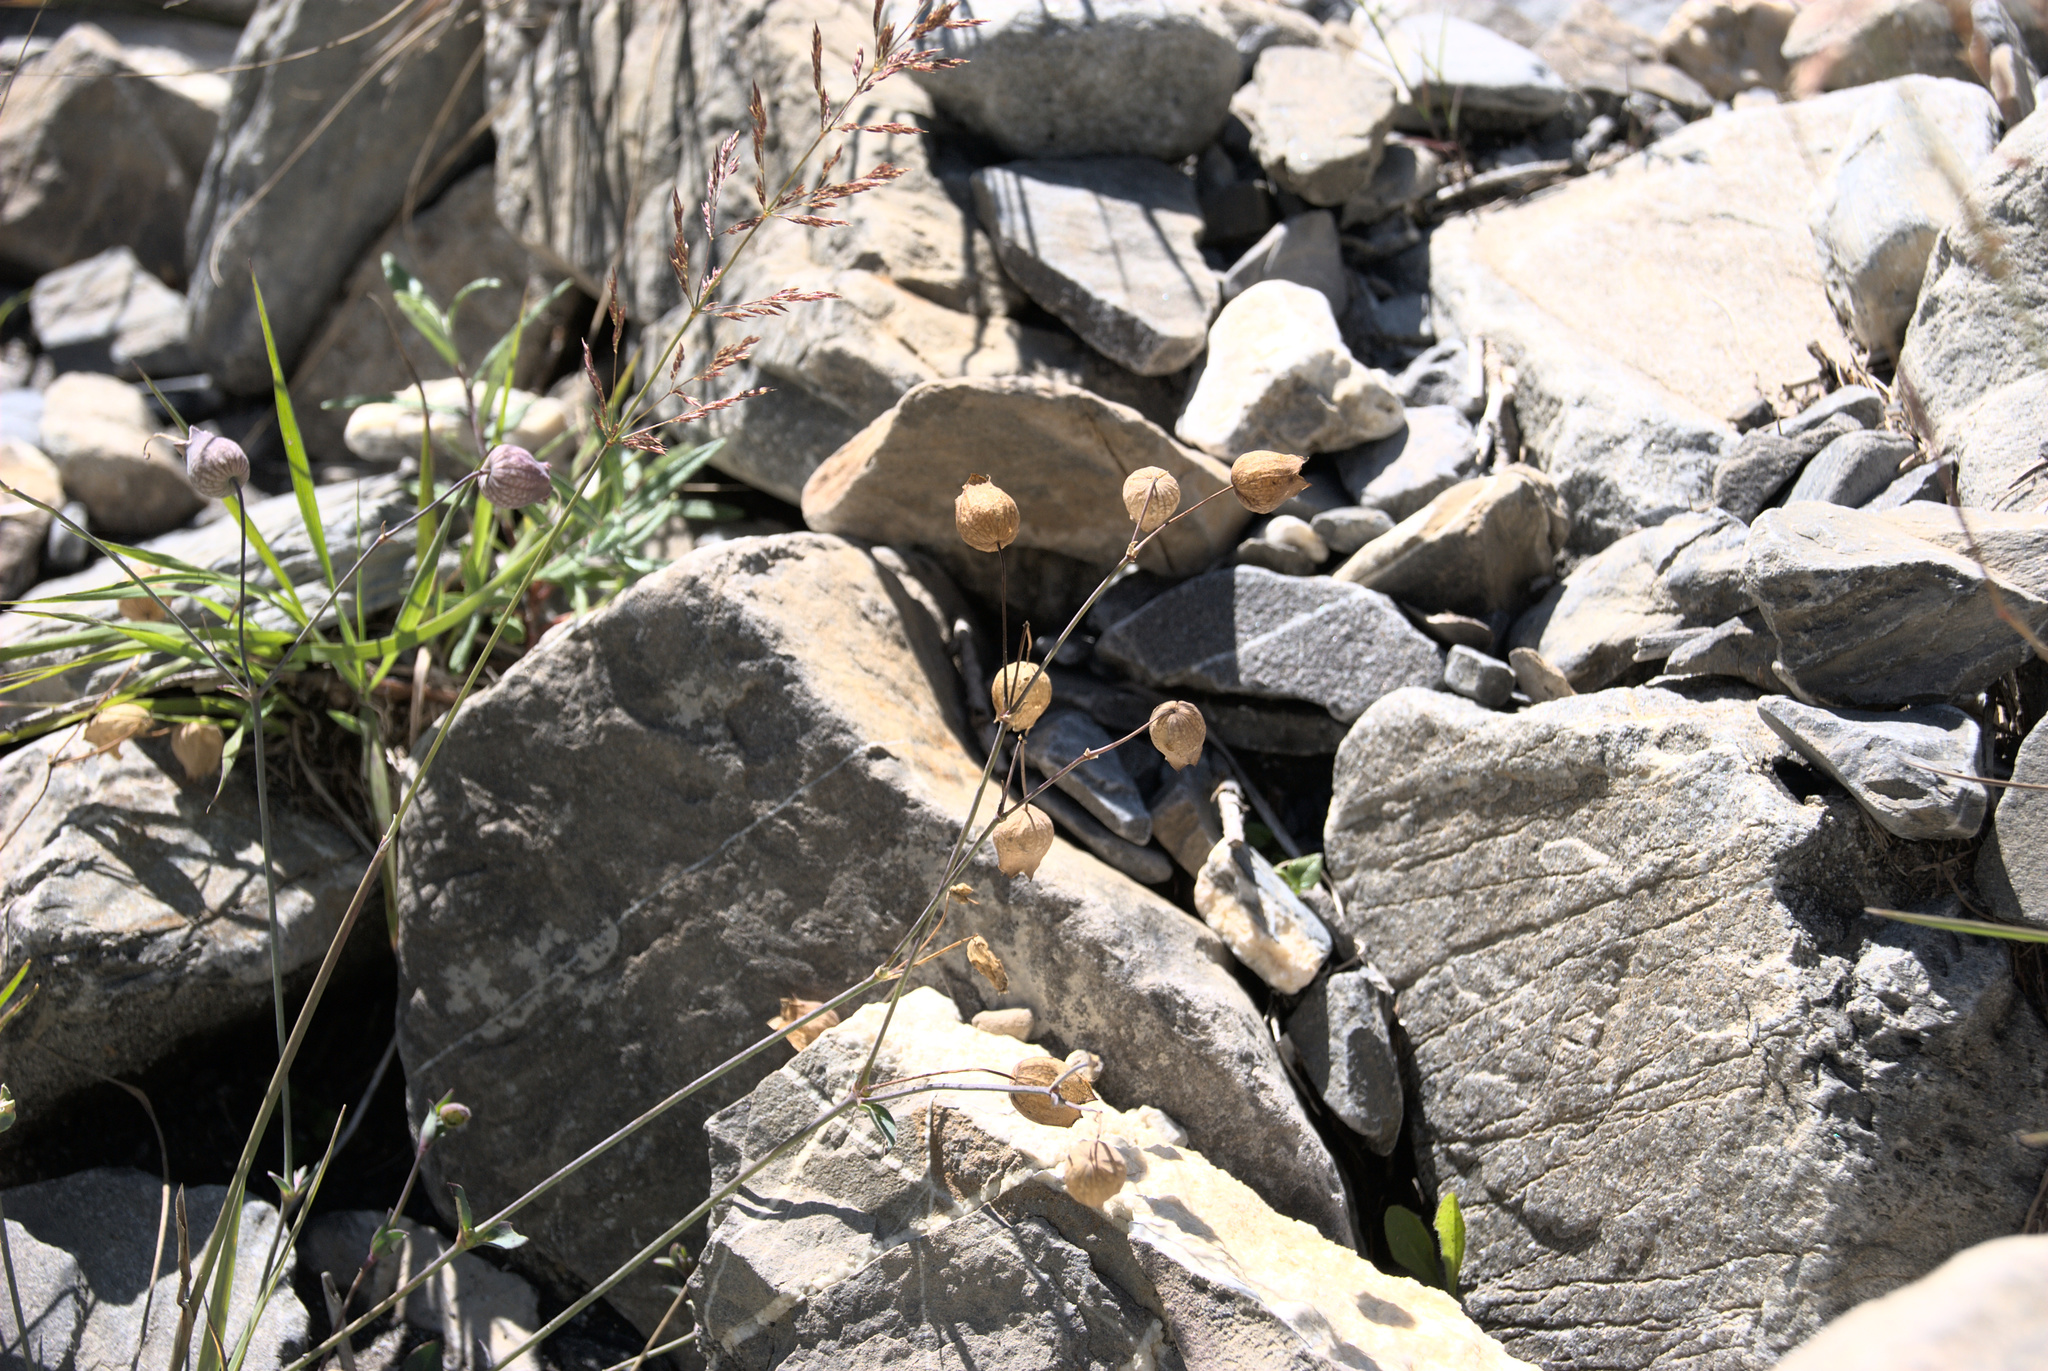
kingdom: Plantae
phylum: Tracheophyta
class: Magnoliopsida
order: Caryophyllales
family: Caryophyllaceae
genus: Silene
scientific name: Silene vulgaris
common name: Bladder campion
